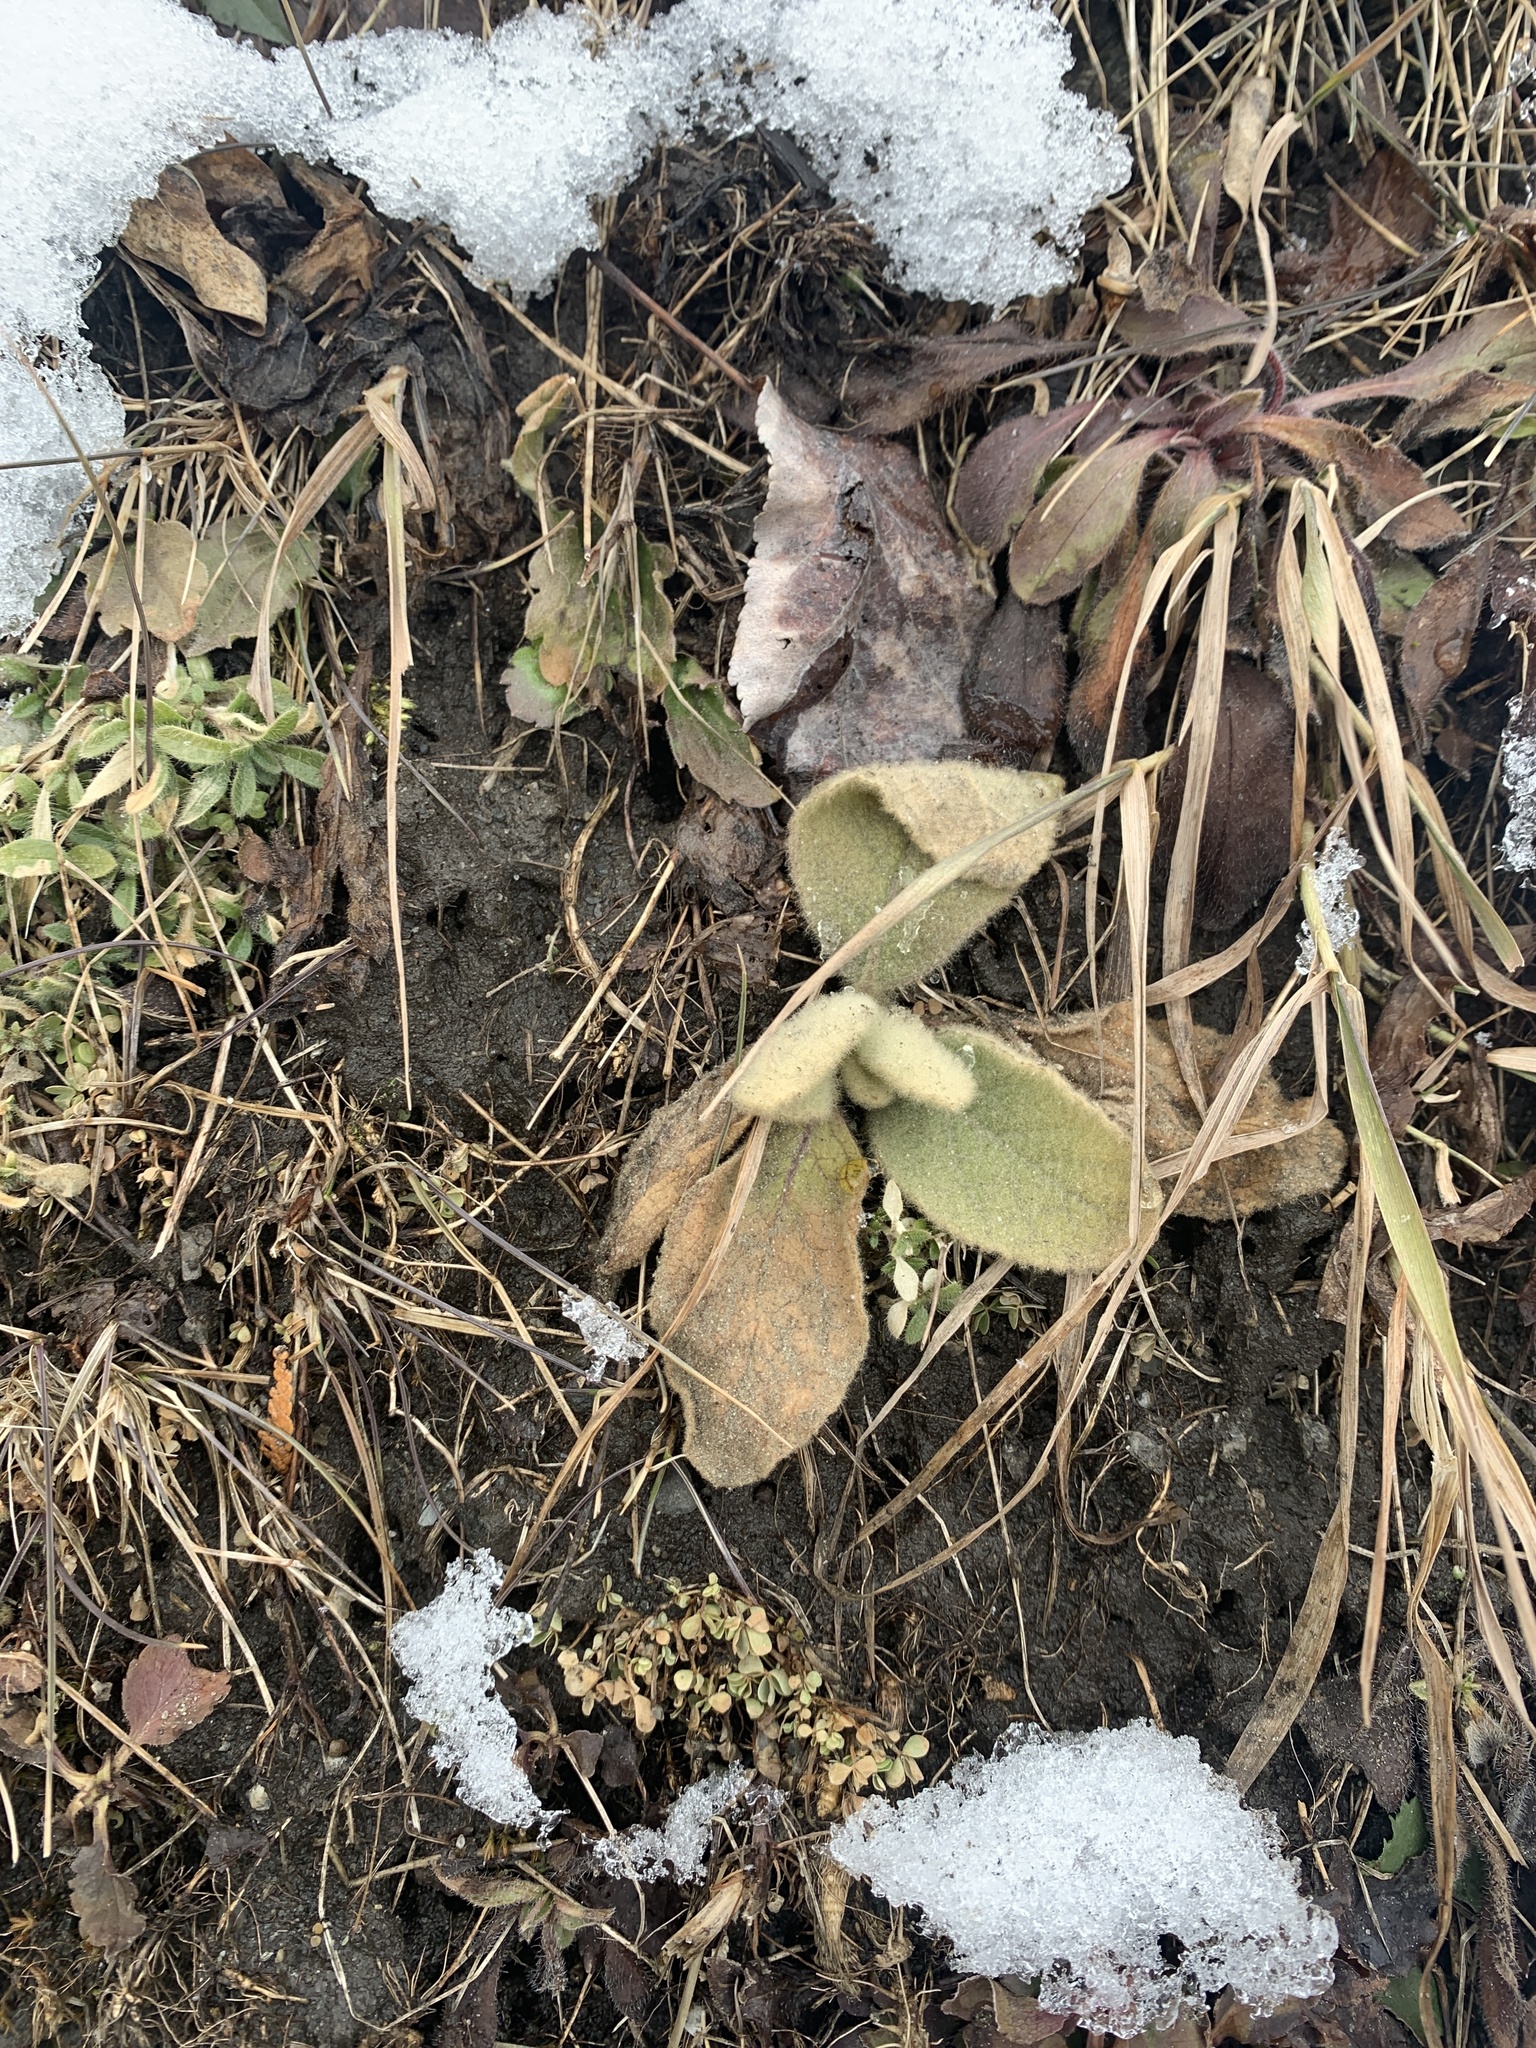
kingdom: Plantae
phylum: Tracheophyta
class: Magnoliopsida
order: Lamiales
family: Scrophulariaceae
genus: Verbascum
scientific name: Verbascum thapsus
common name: Common mullein
